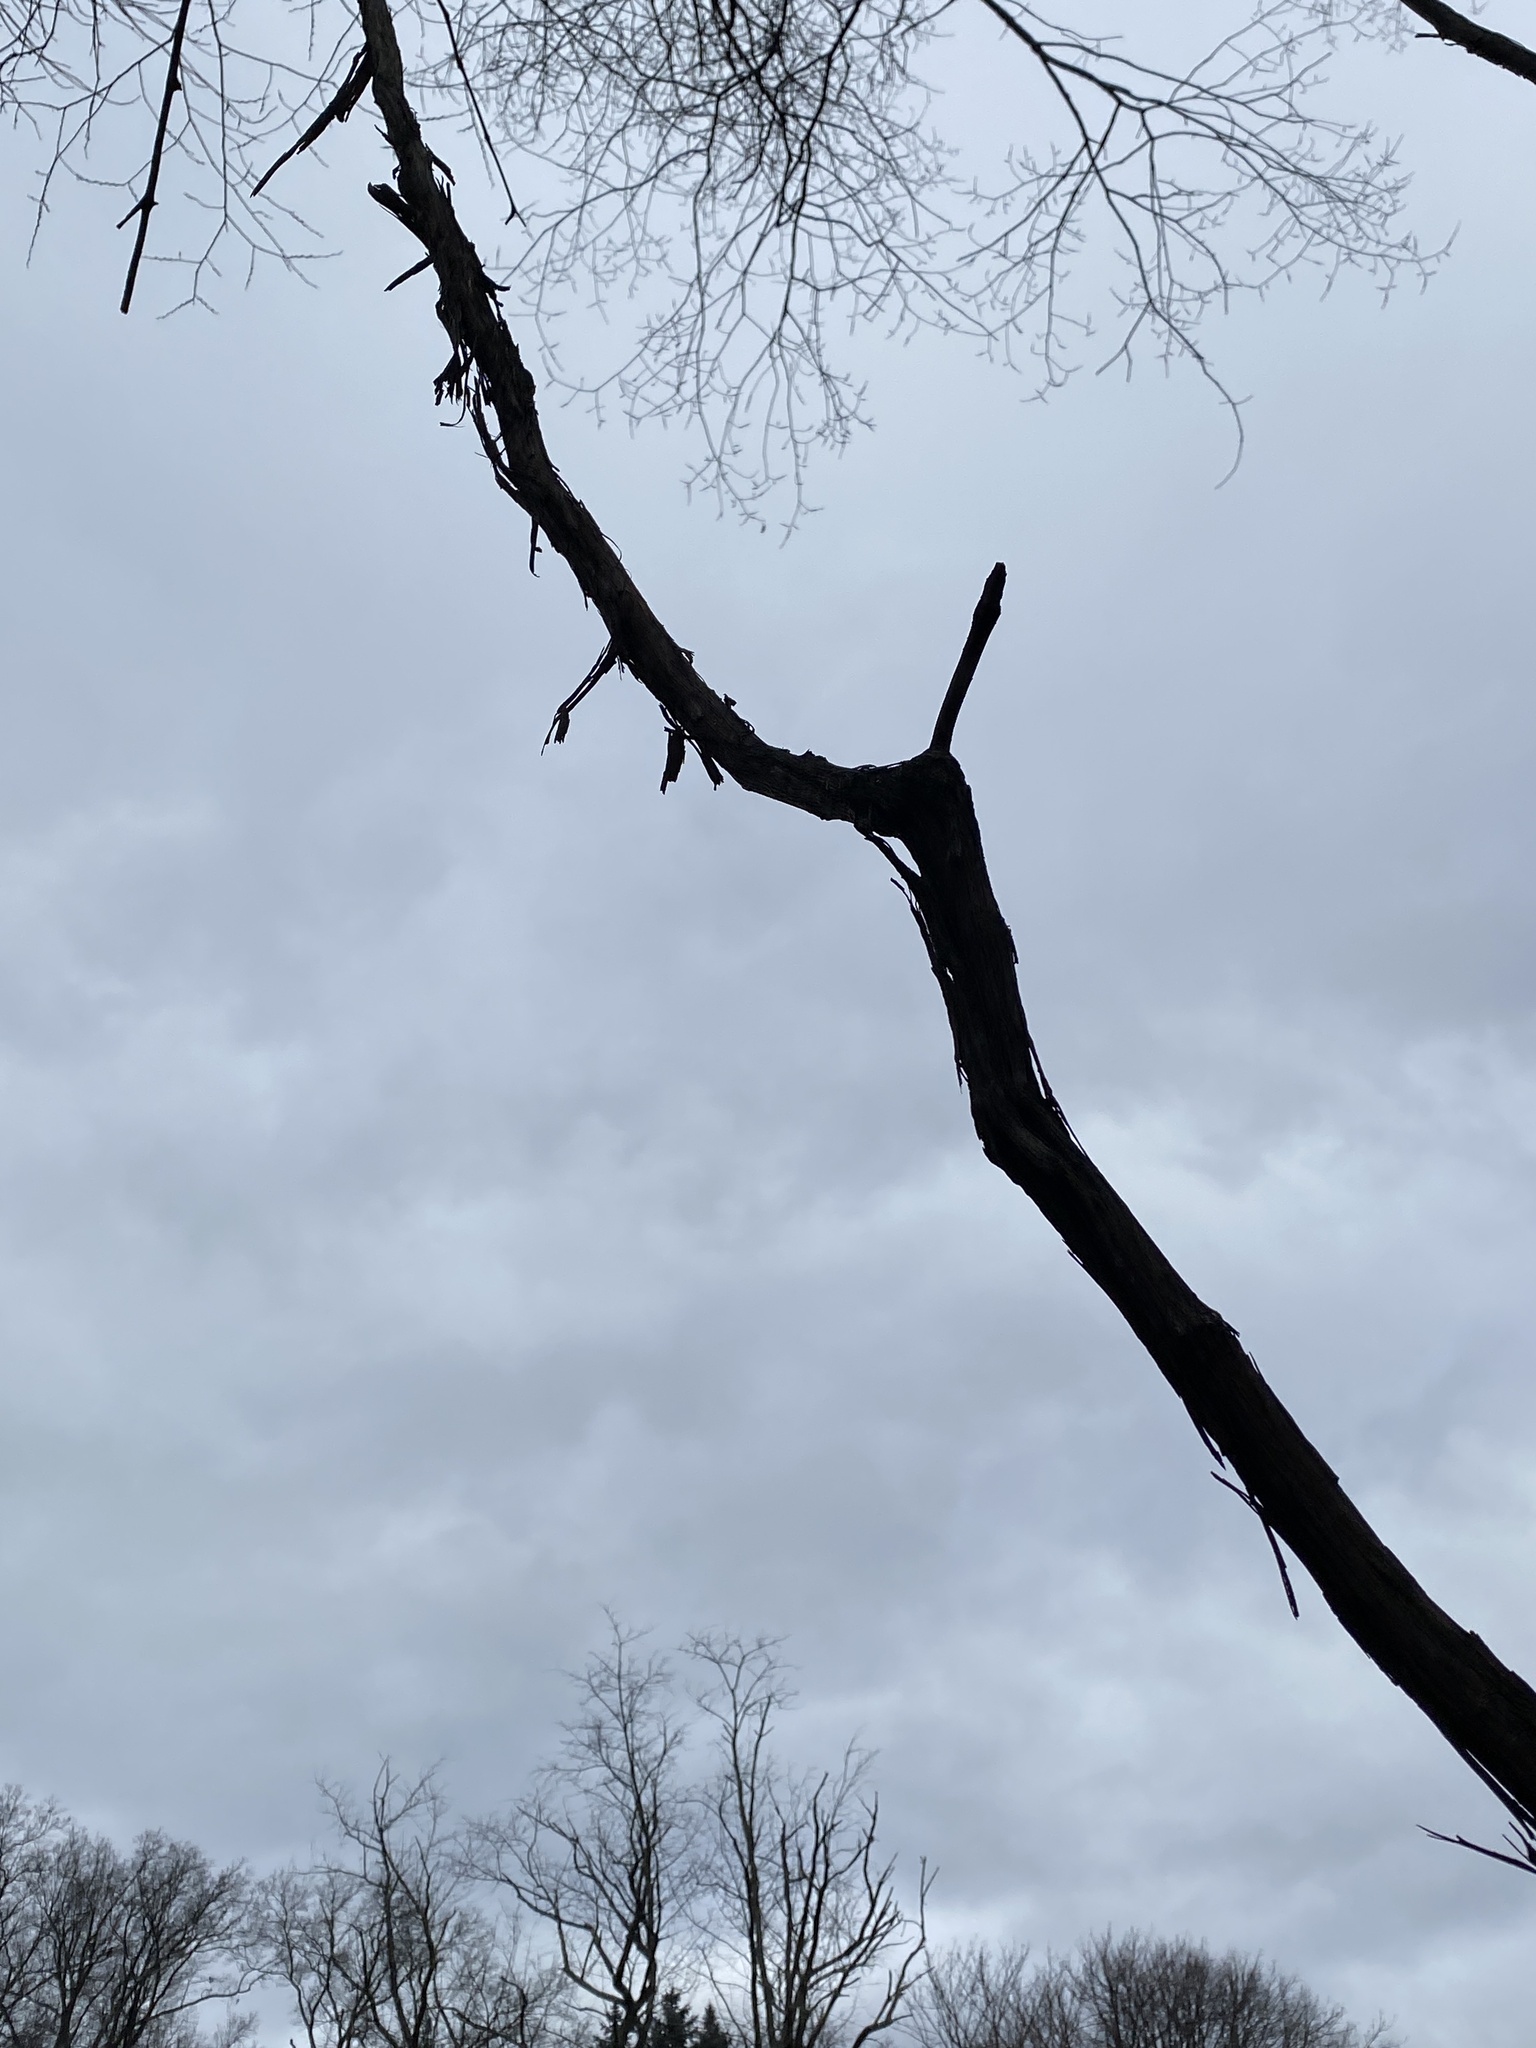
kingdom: Plantae
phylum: Tracheophyta
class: Magnoliopsida
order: Vitales
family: Vitaceae
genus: Vitis
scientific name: Vitis
